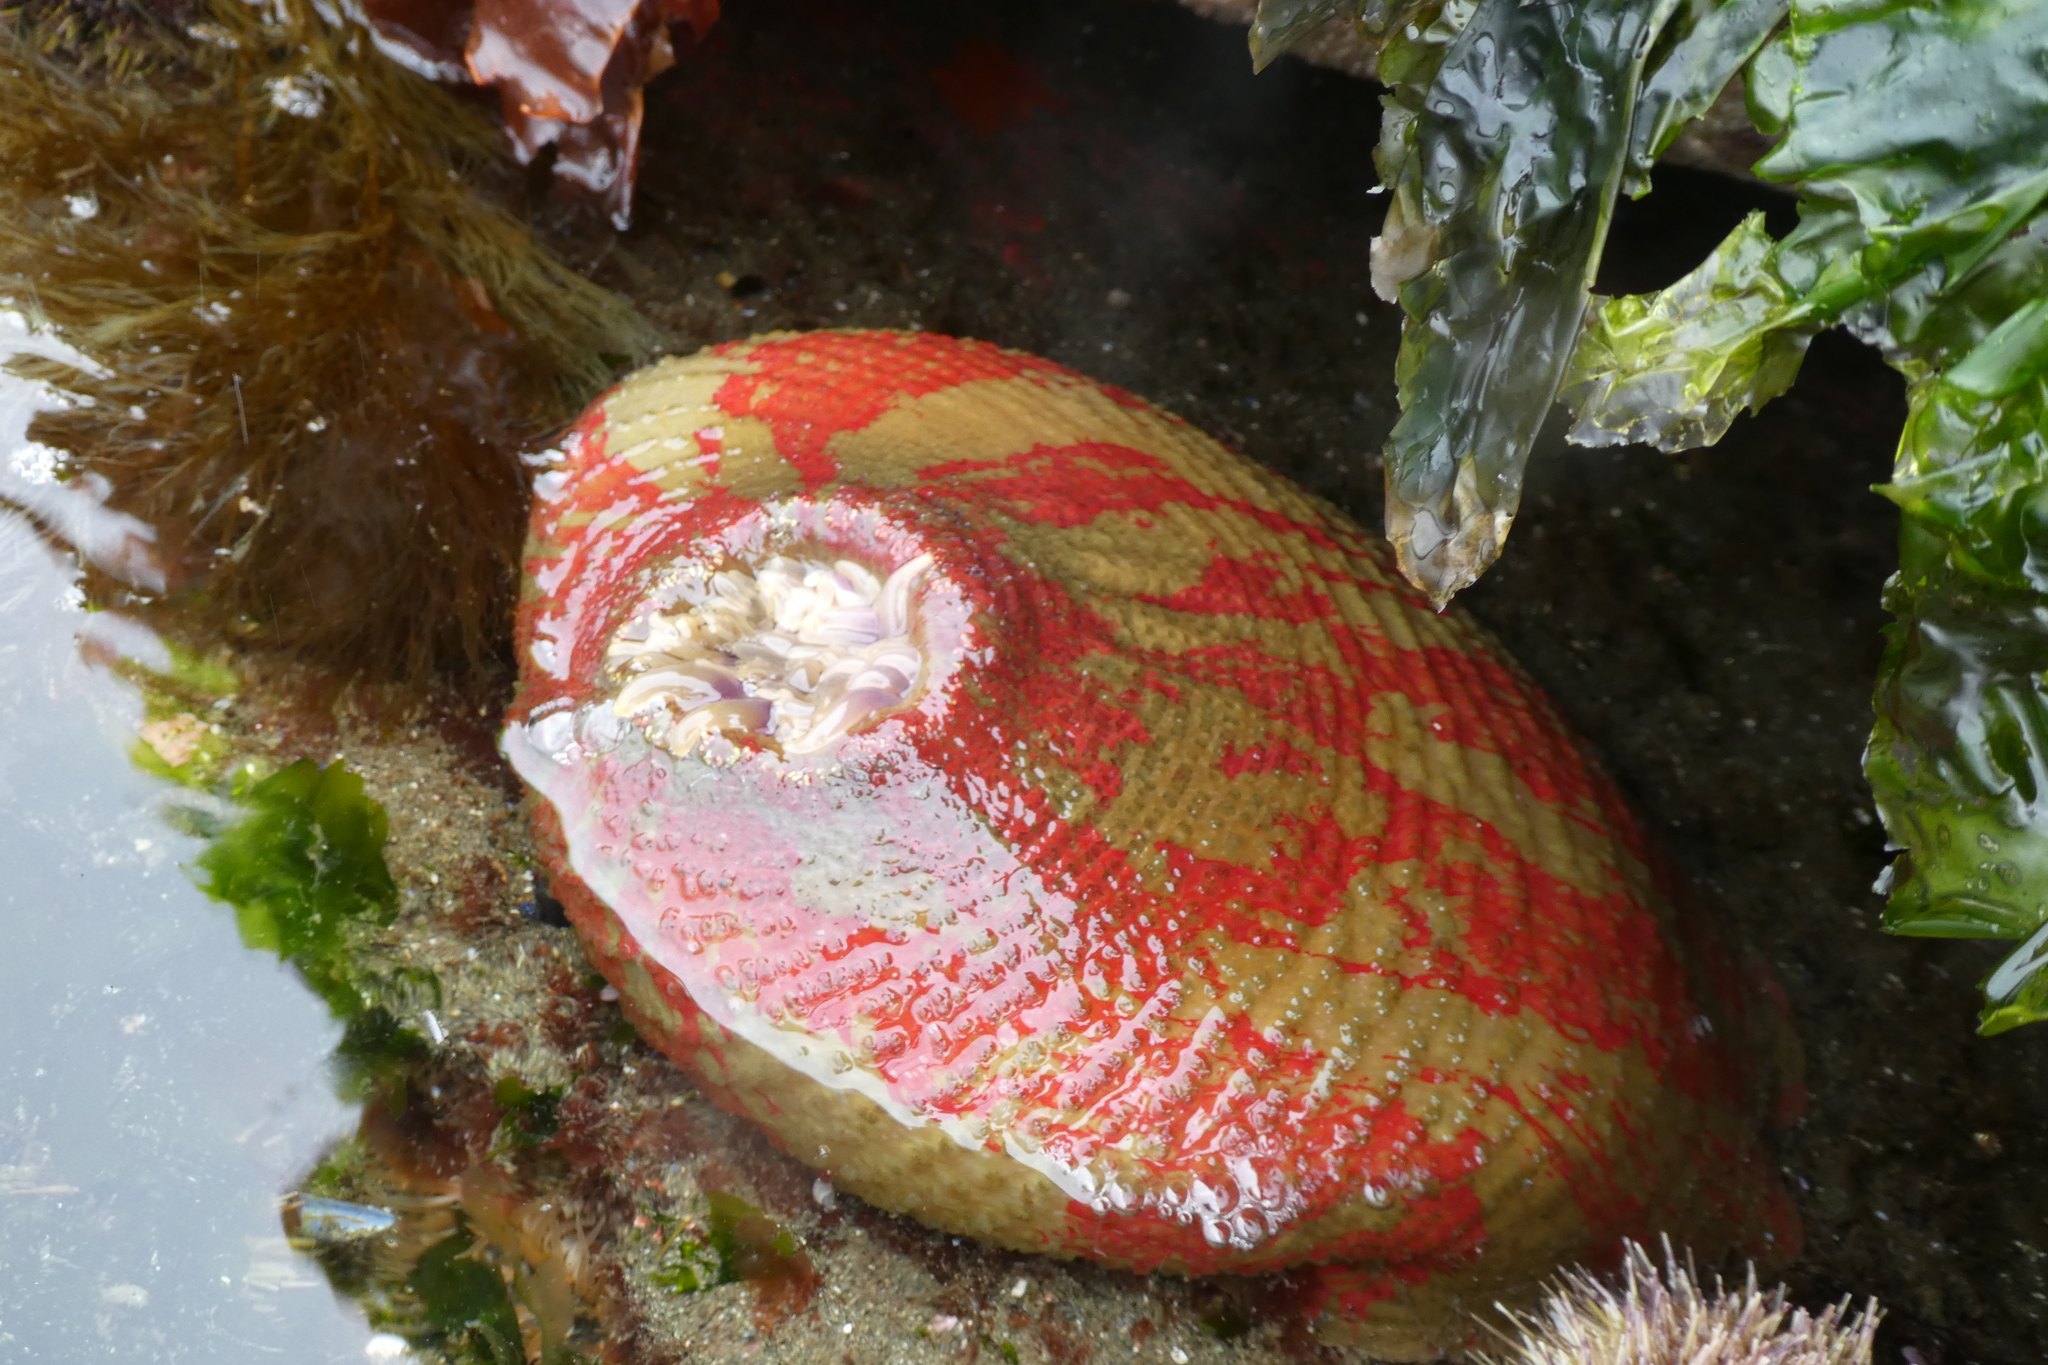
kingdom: Animalia
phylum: Cnidaria
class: Anthozoa
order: Actiniaria
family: Actiniidae
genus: Urticina
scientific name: Urticina grebelnyi
